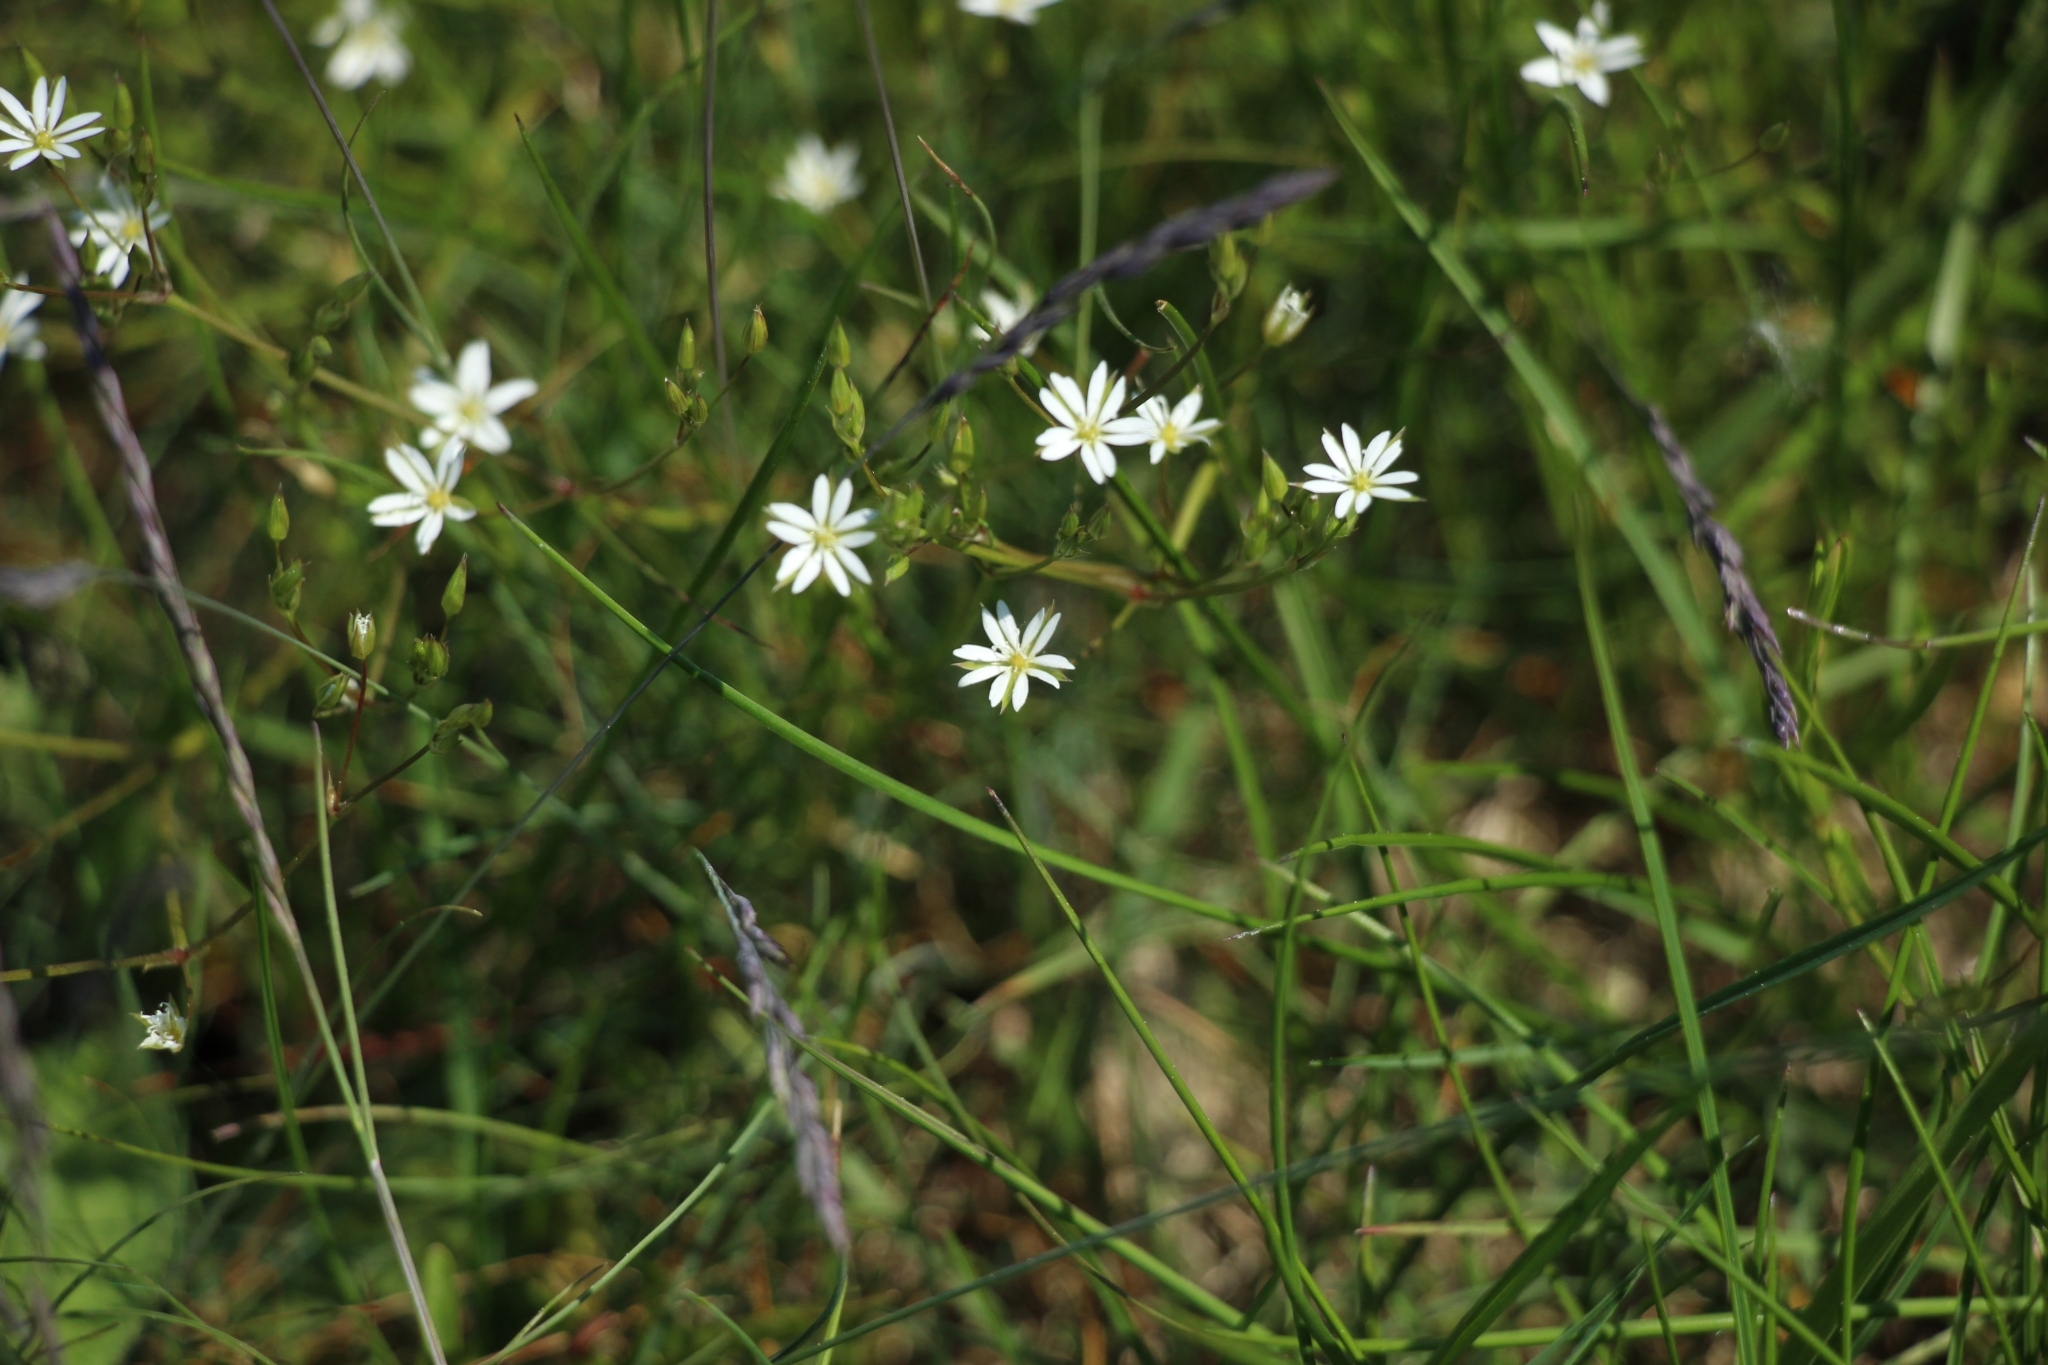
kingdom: Plantae
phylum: Tracheophyta
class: Magnoliopsida
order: Caryophyllales
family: Caryophyllaceae
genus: Stellaria
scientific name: Stellaria graminea
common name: Grass-like starwort
